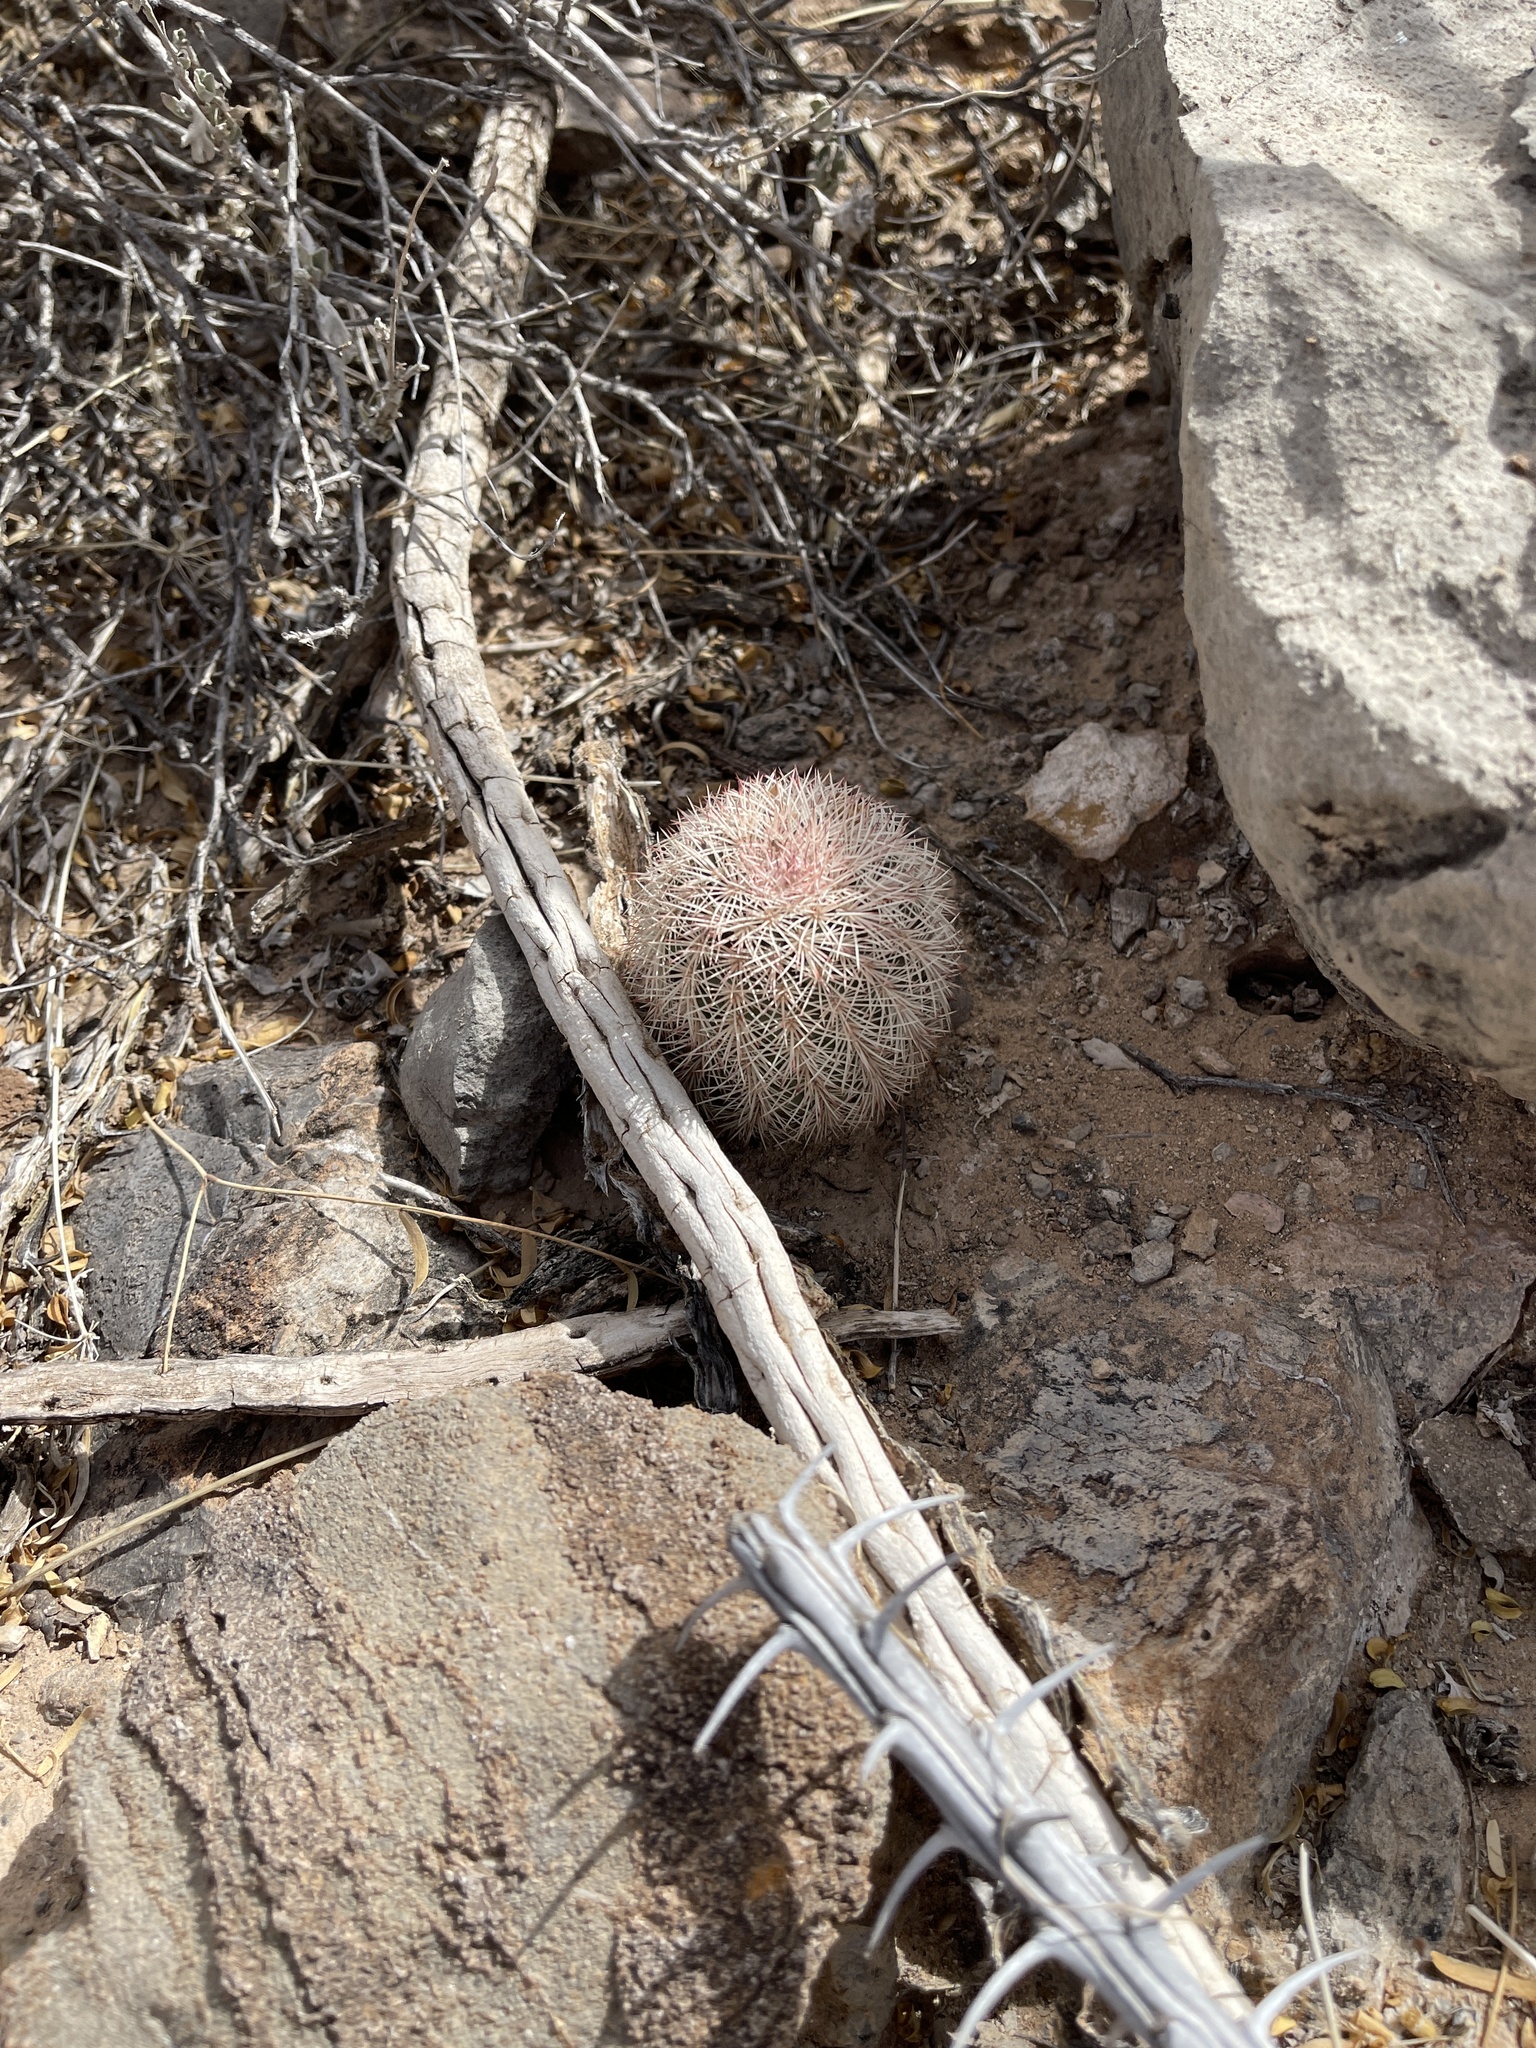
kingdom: Plantae
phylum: Tracheophyta
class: Magnoliopsida
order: Caryophyllales
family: Cactaceae
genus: Echinocereus
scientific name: Echinocereus dasyacanthus
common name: Spiny hedgehog cactus
